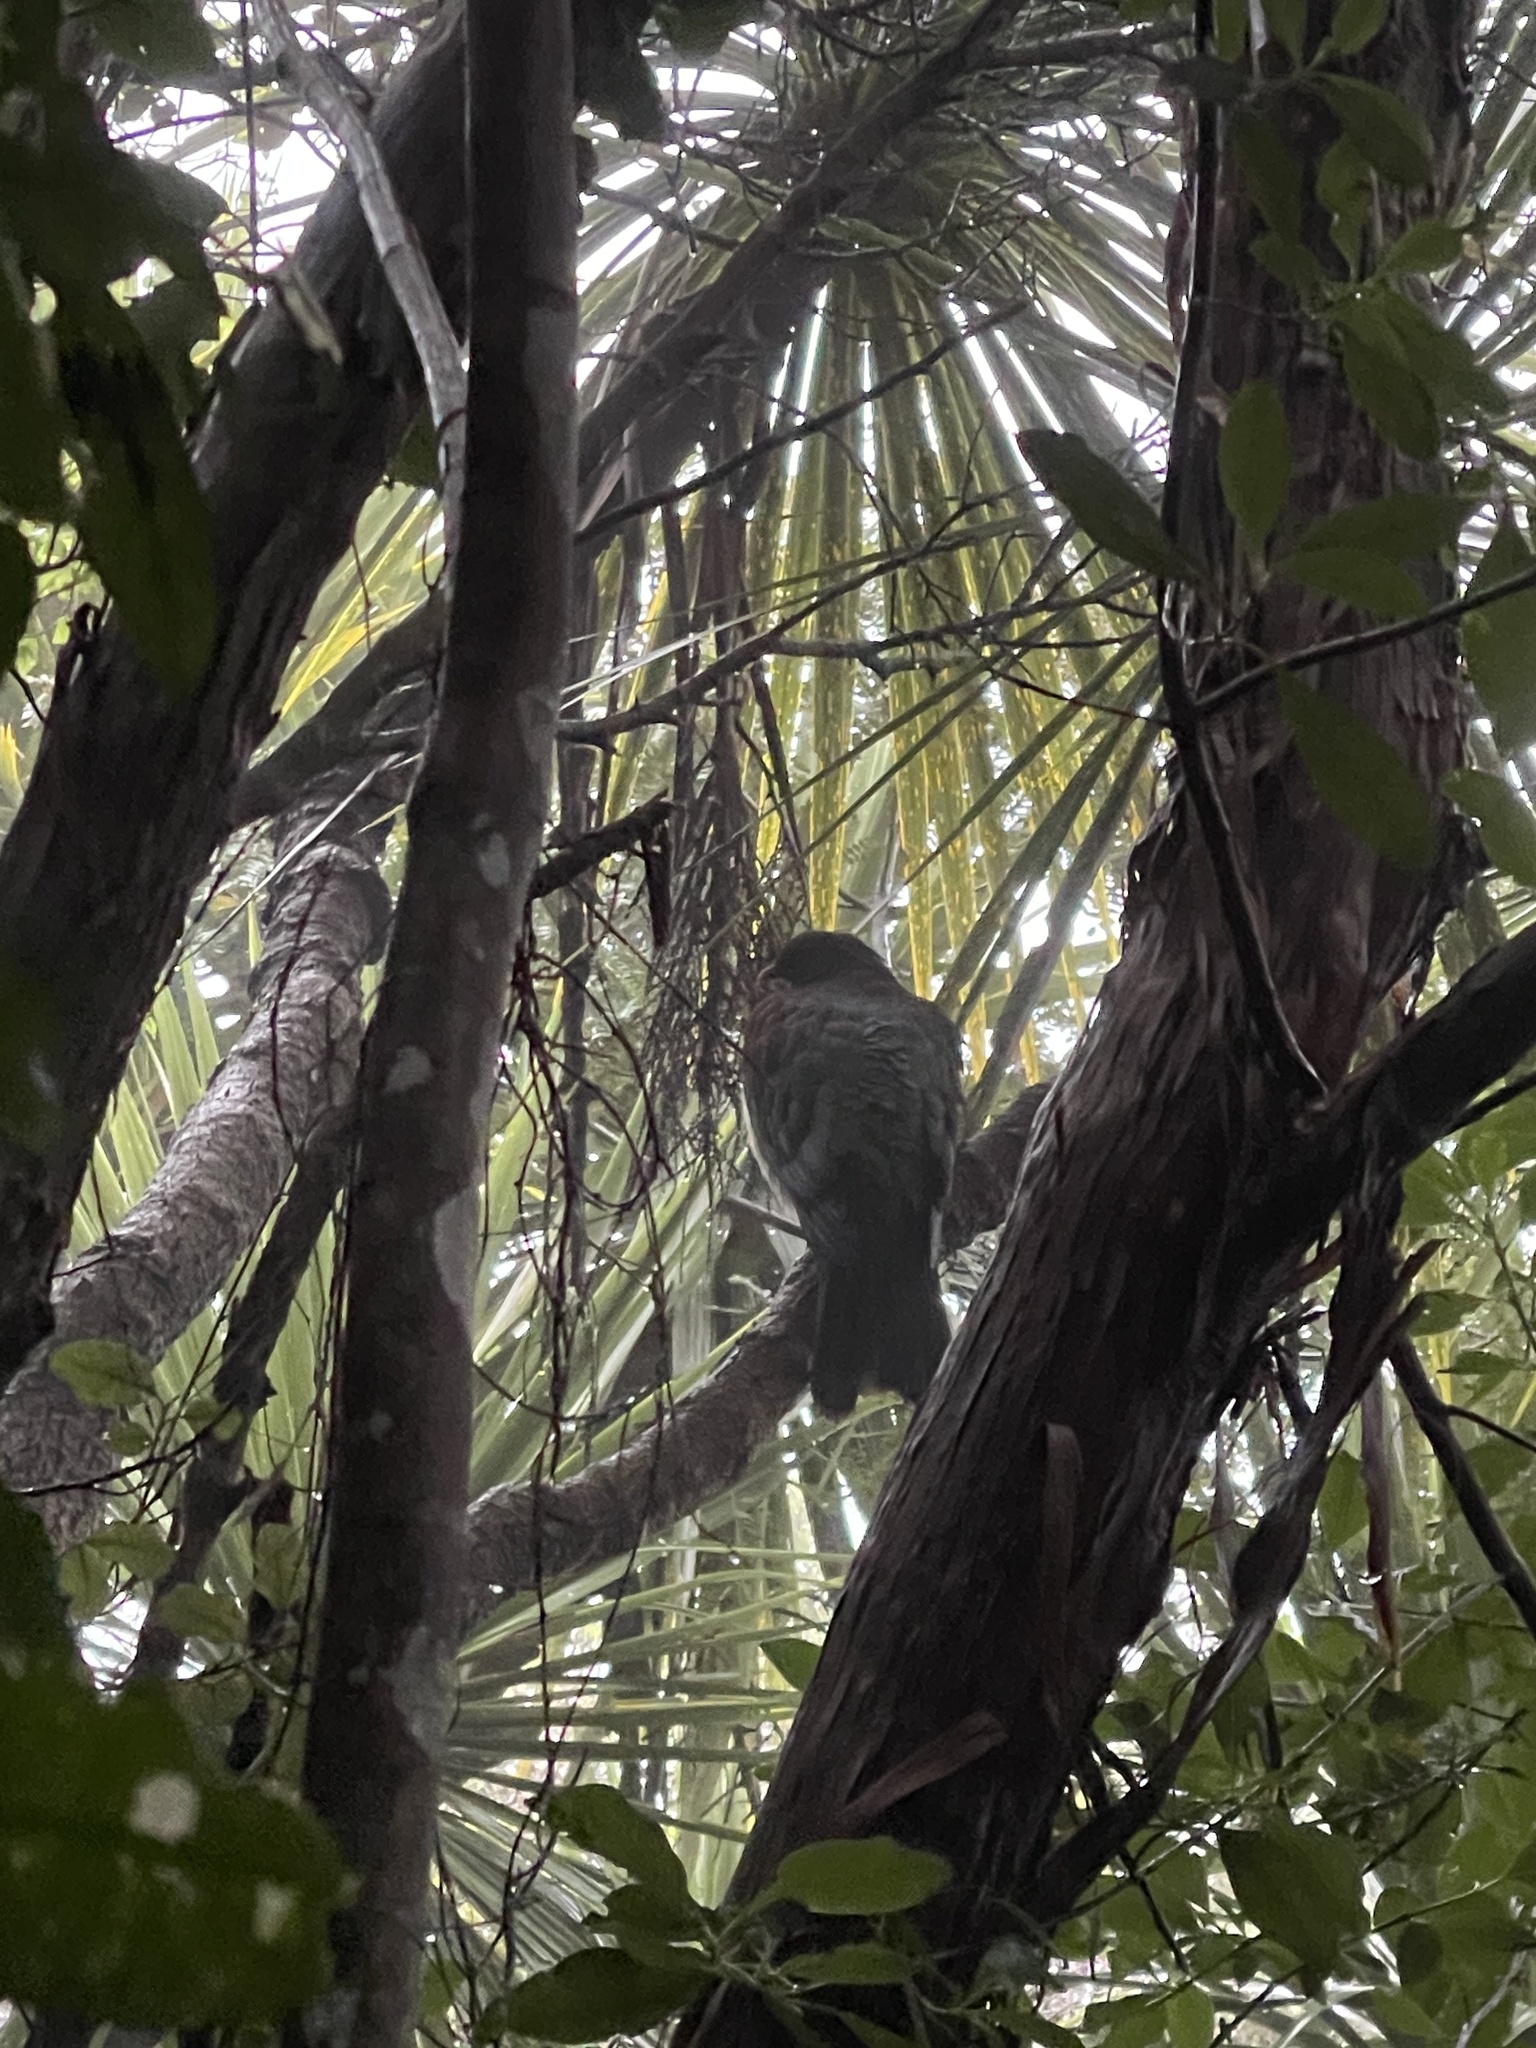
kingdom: Animalia
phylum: Chordata
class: Aves
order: Columbiformes
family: Columbidae
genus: Hemiphaga
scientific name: Hemiphaga novaeseelandiae
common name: New zealand pigeon
